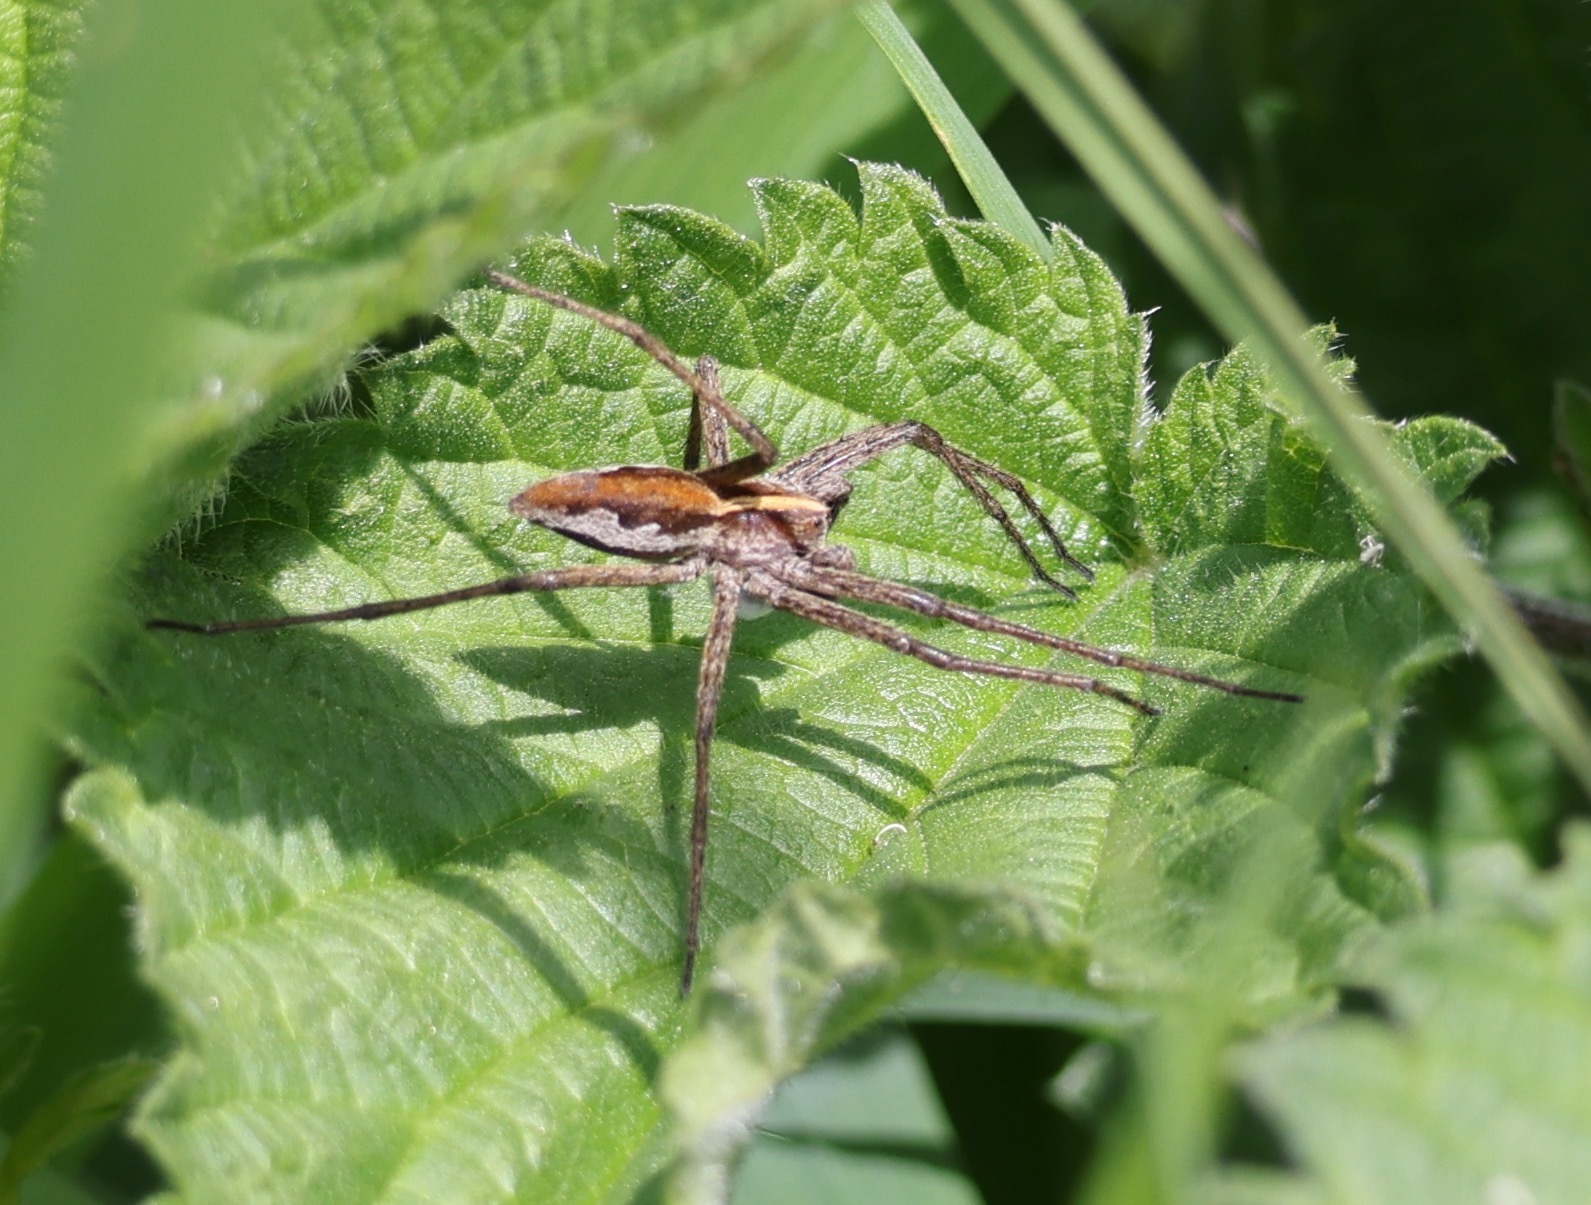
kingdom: Animalia
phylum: Arthropoda
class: Arachnida
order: Araneae
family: Pisauridae
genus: Pisaura
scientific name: Pisaura mirabilis
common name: Tent spider
